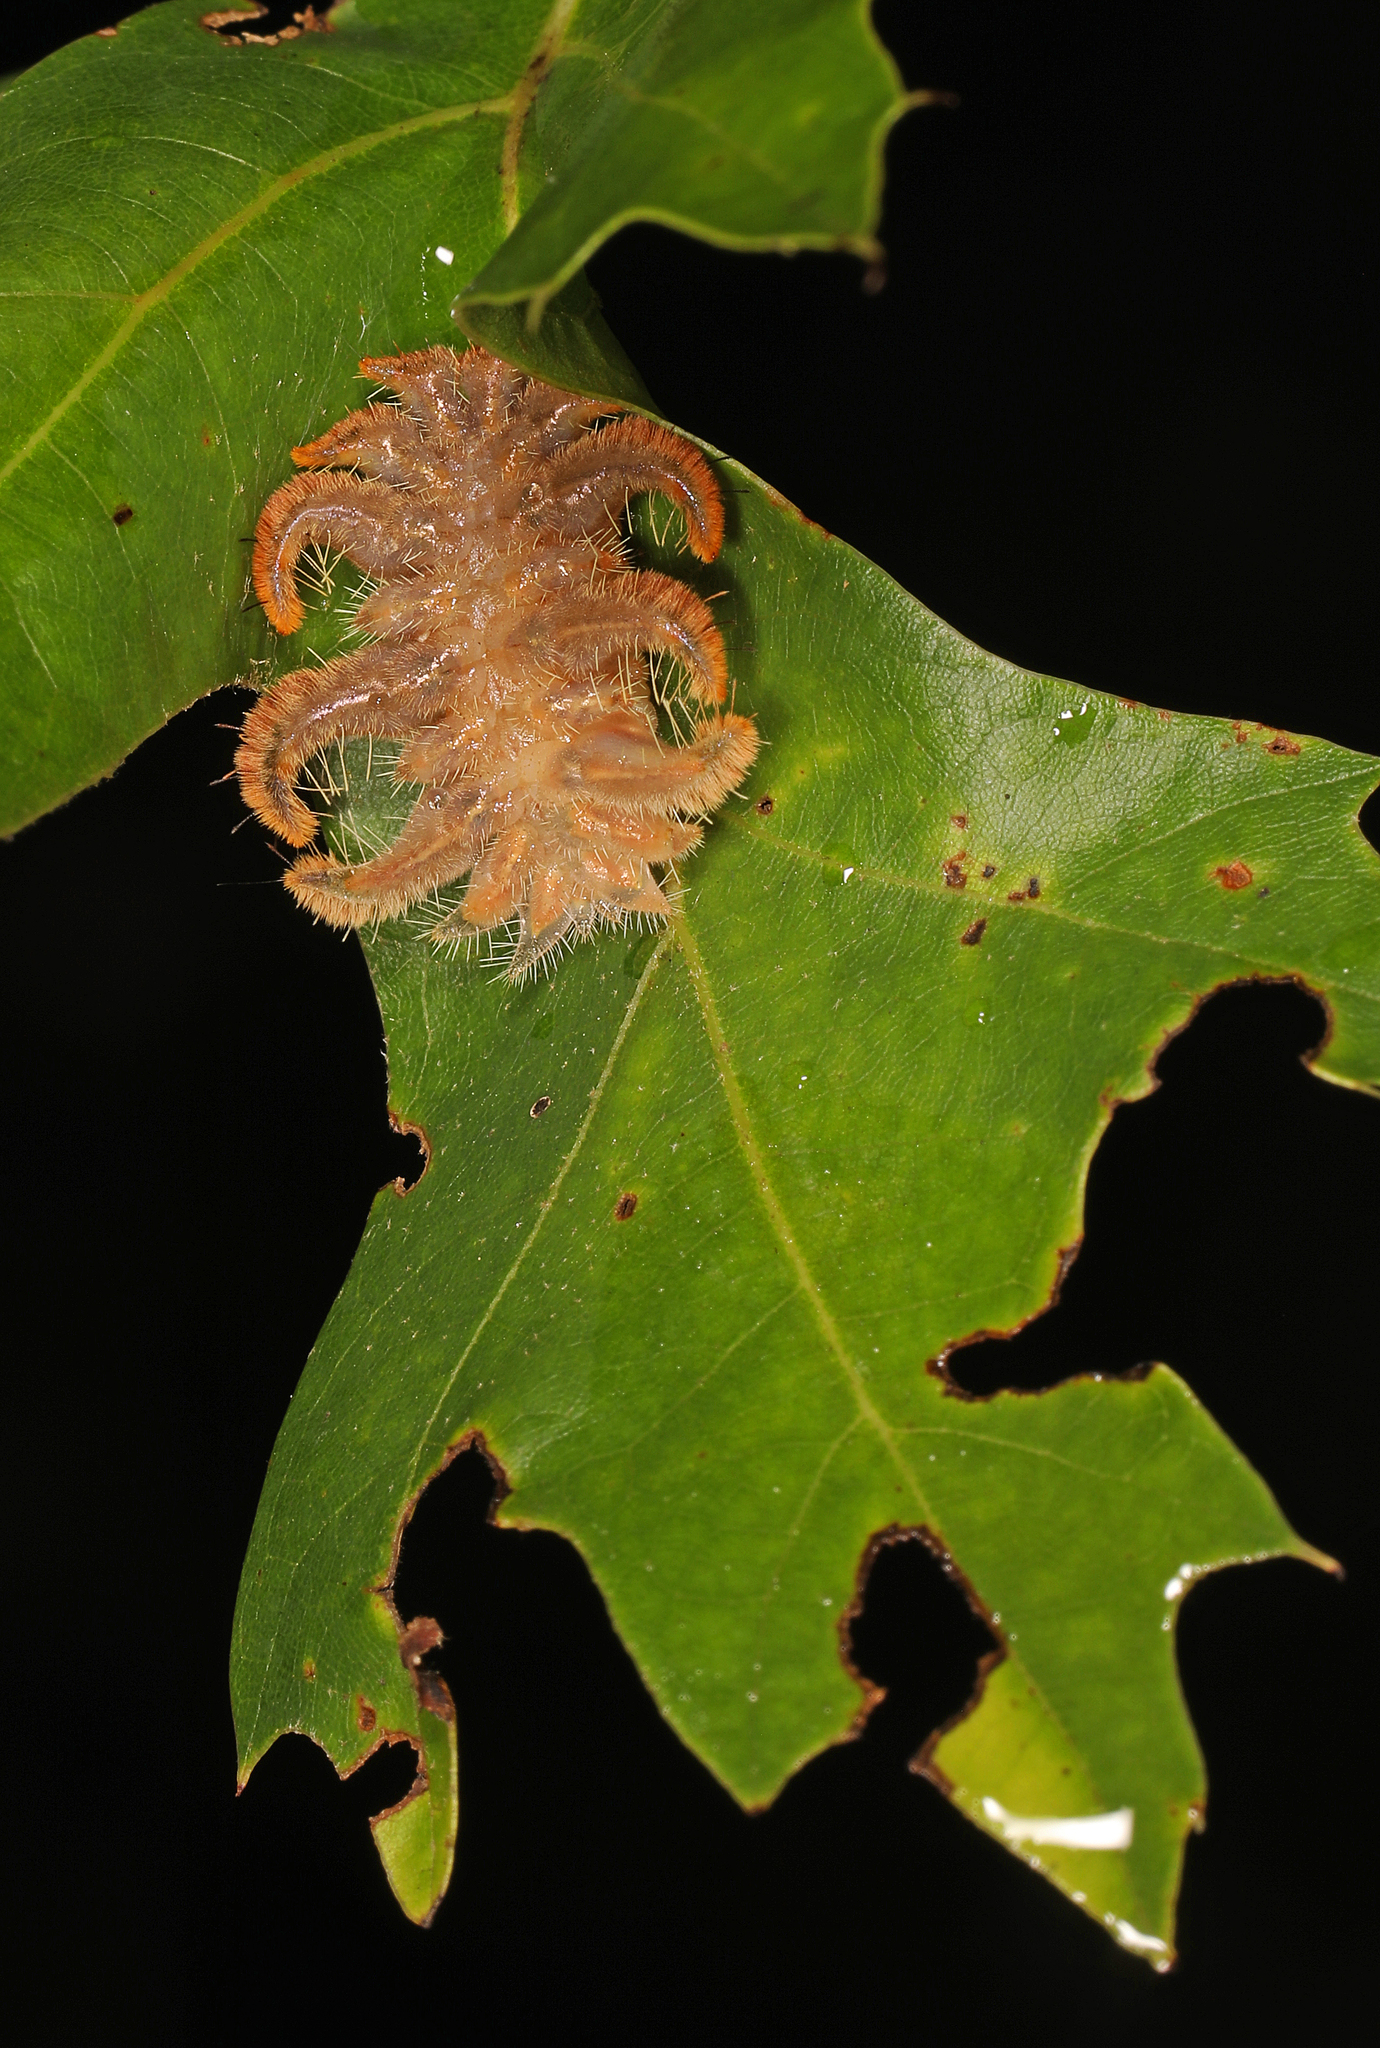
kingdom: Animalia
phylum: Arthropoda
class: Insecta
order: Lepidoptera
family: Limacodidae
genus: Phobetron
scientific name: Phobetron pithecium
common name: Hag moth
